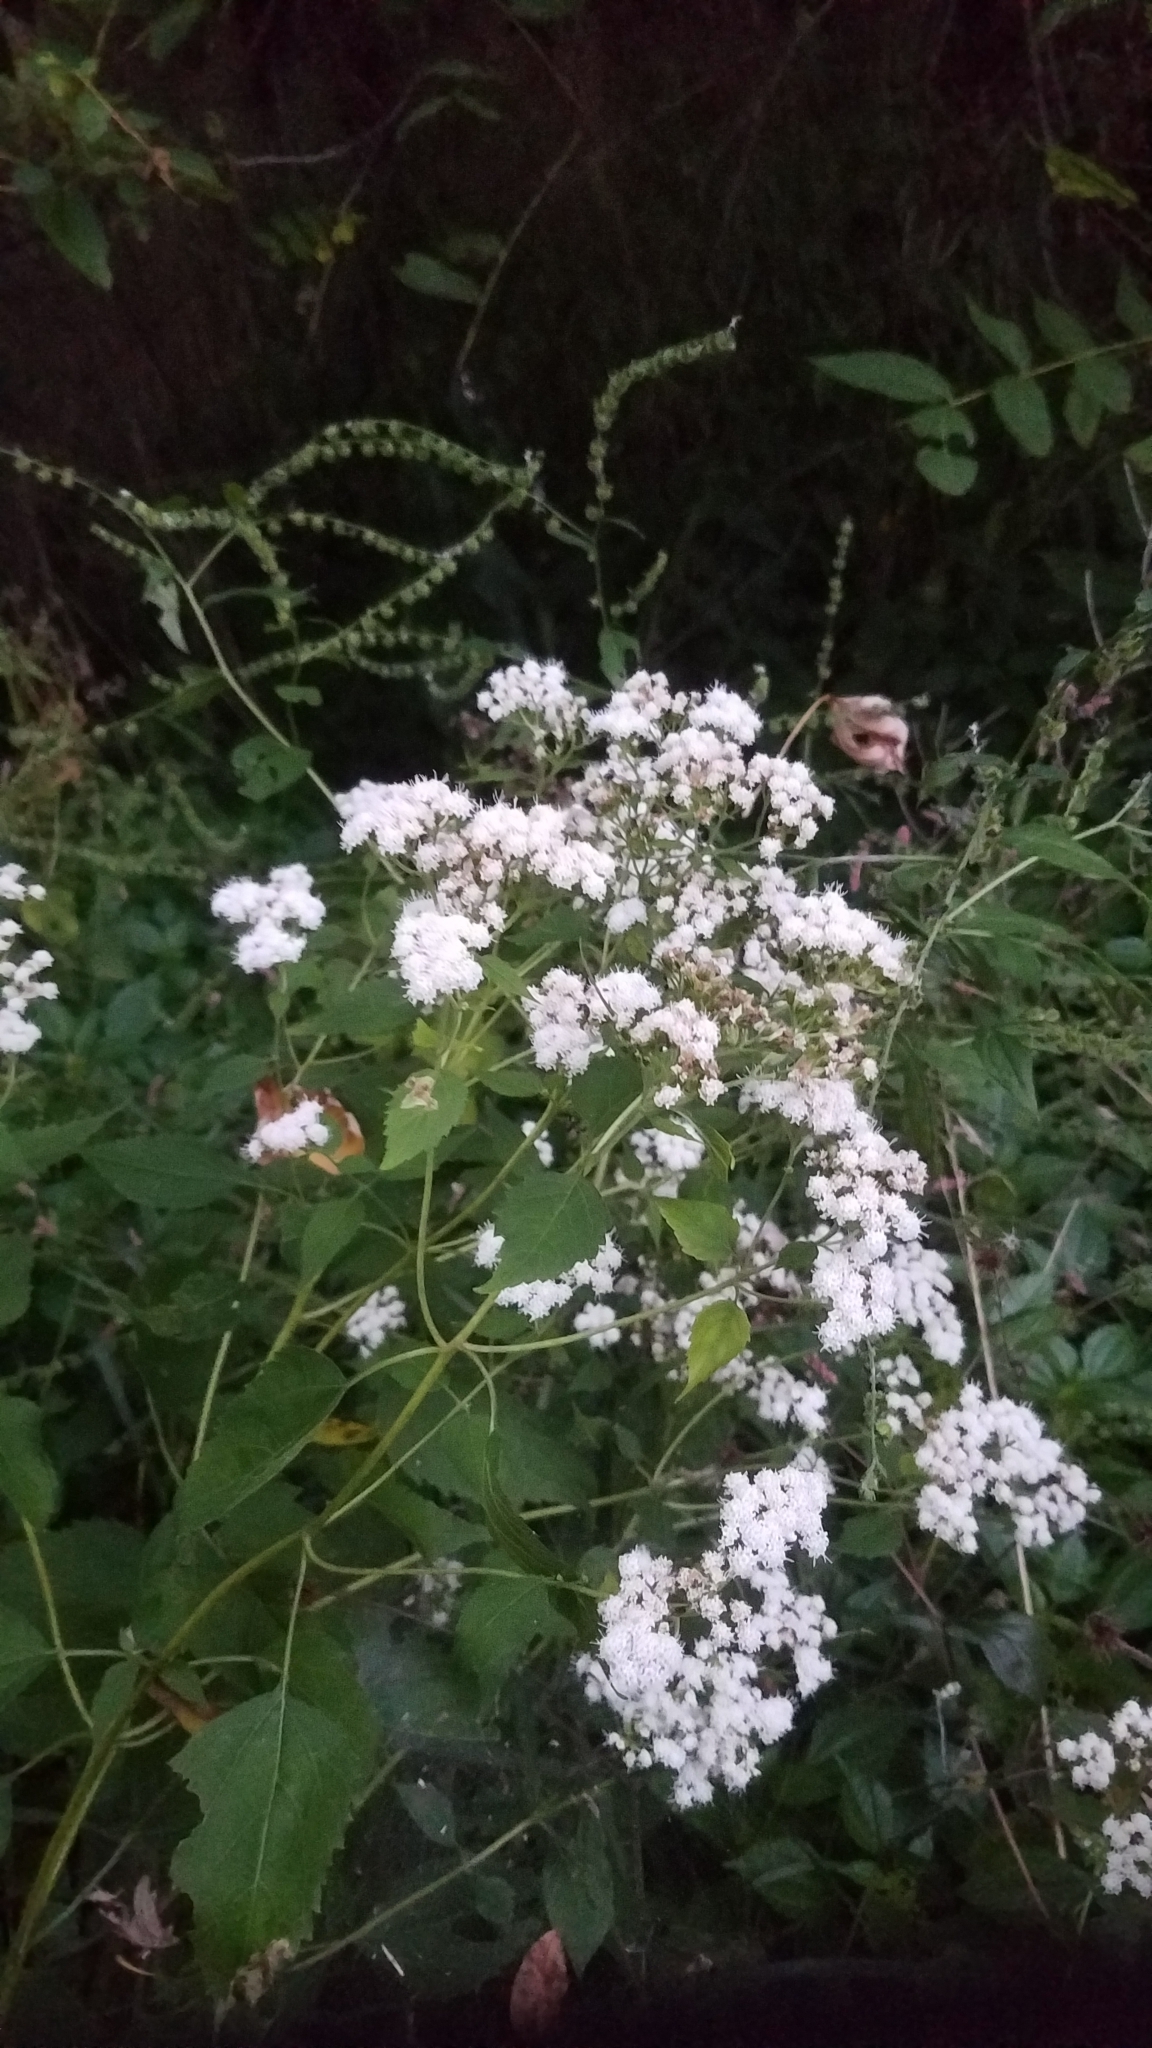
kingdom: Plantae
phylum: Tracheophyta
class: Magnoliopsida
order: Asterales
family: Asteraceae
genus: Ageratina
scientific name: Ageratina altissima
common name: White snakeroot
